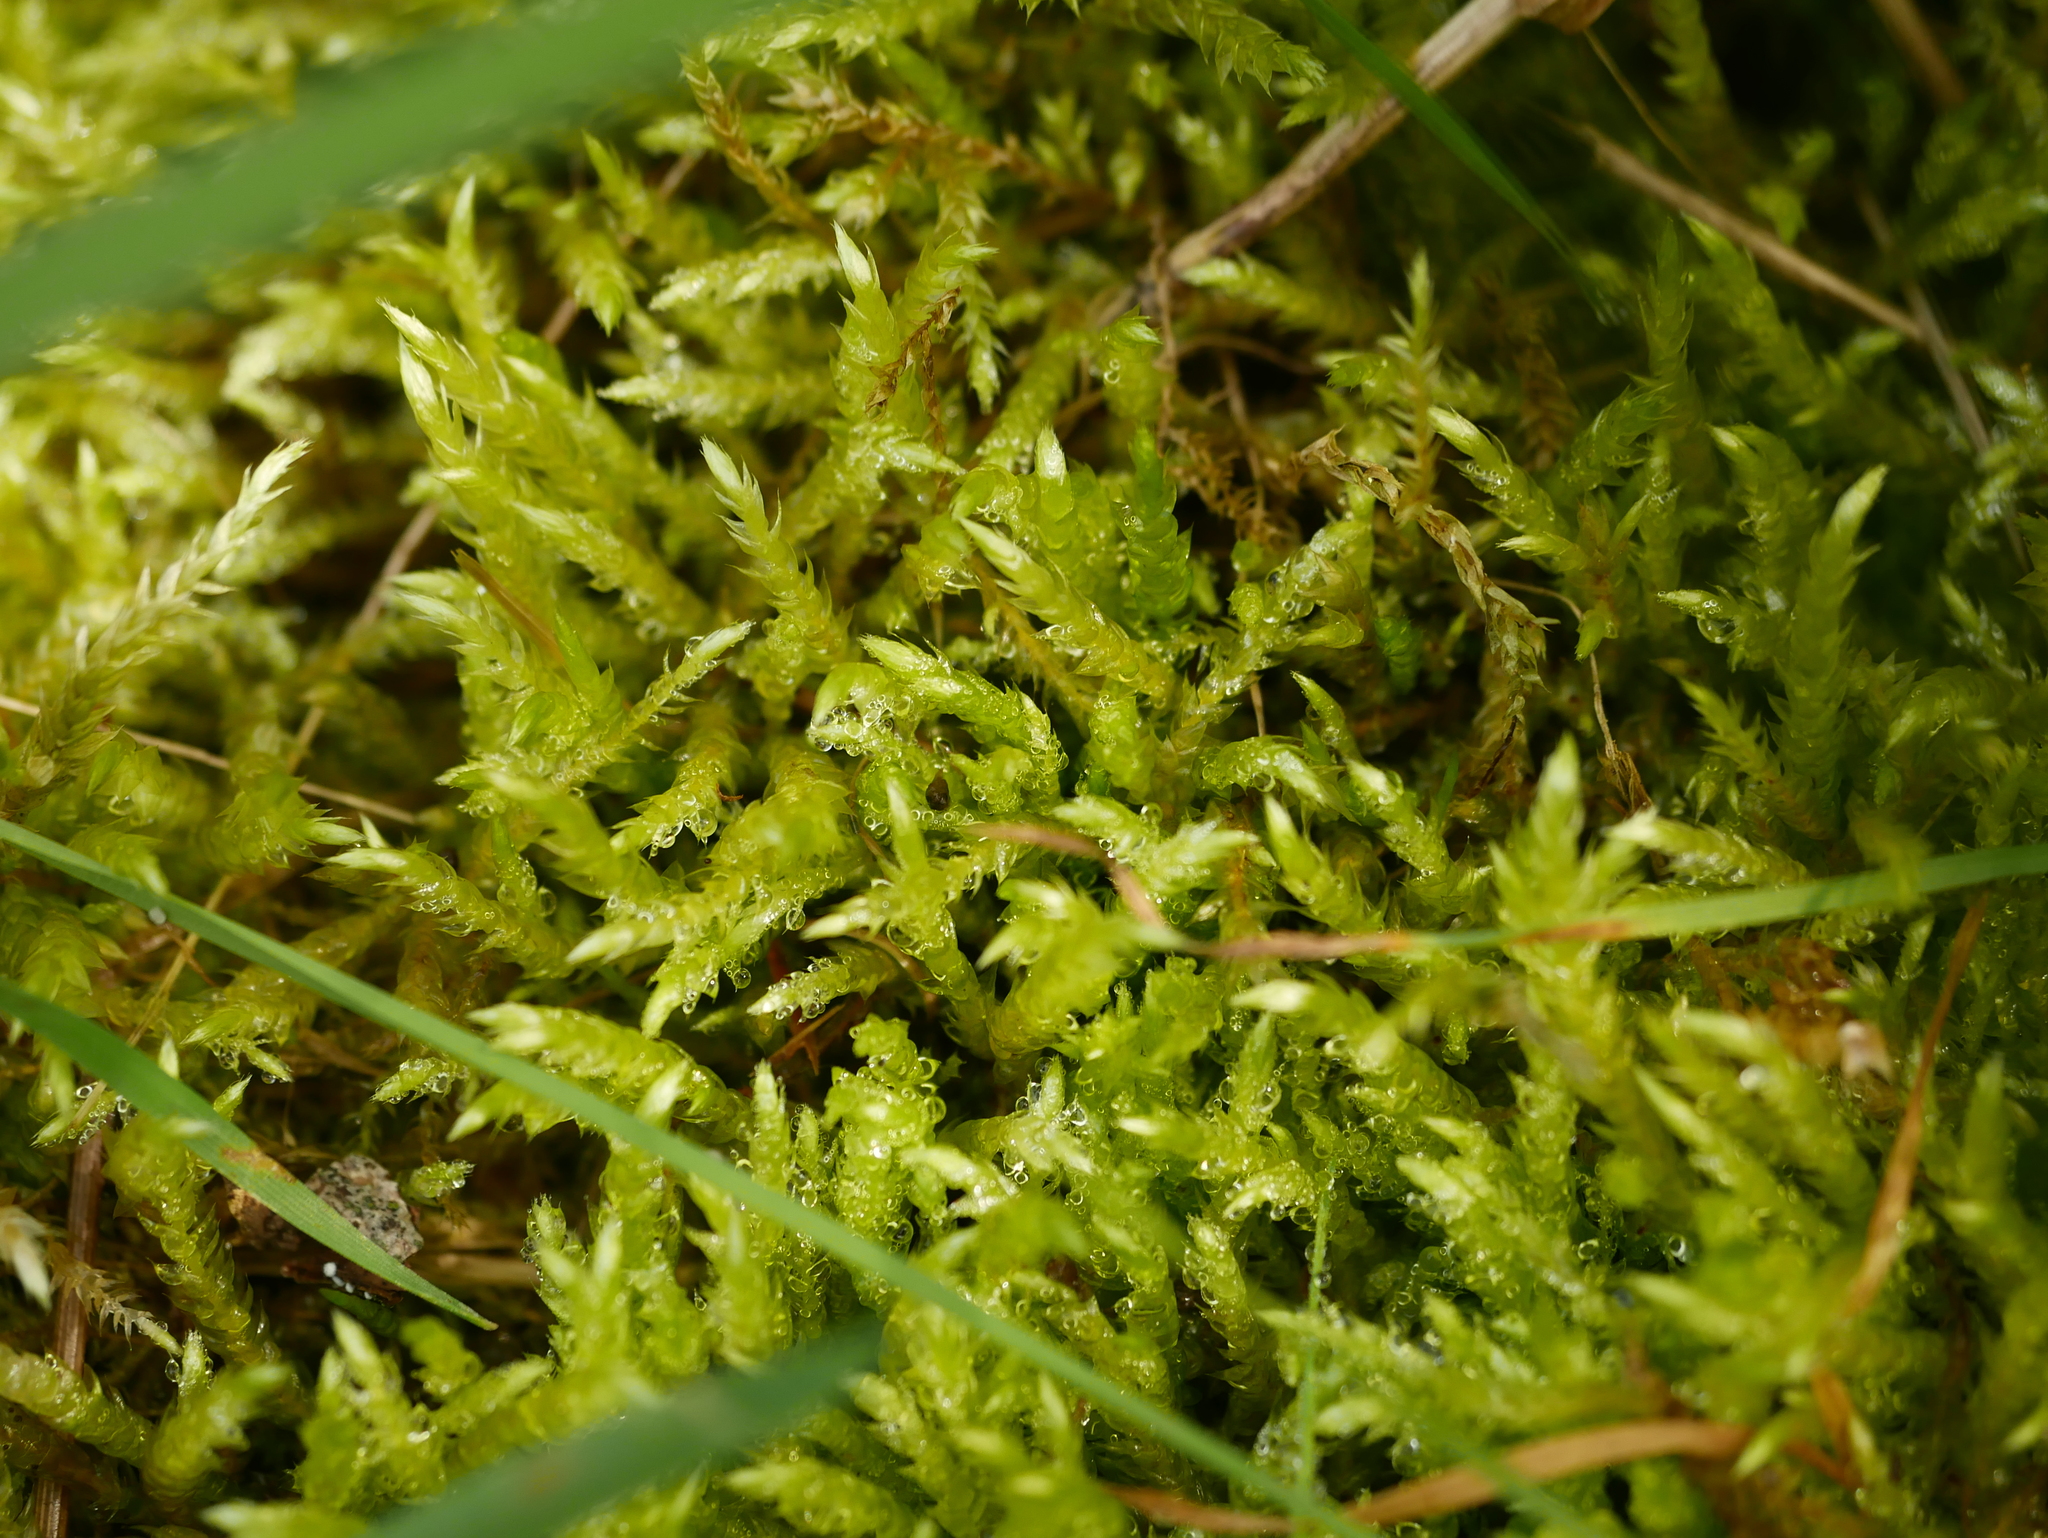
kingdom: Plantae
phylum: Bryophyta
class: Bryopsida
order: Hypnales
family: Brachytheciaceae
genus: Brachythecium
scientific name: Brachythecium albicans
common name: Whitish ragged moss
